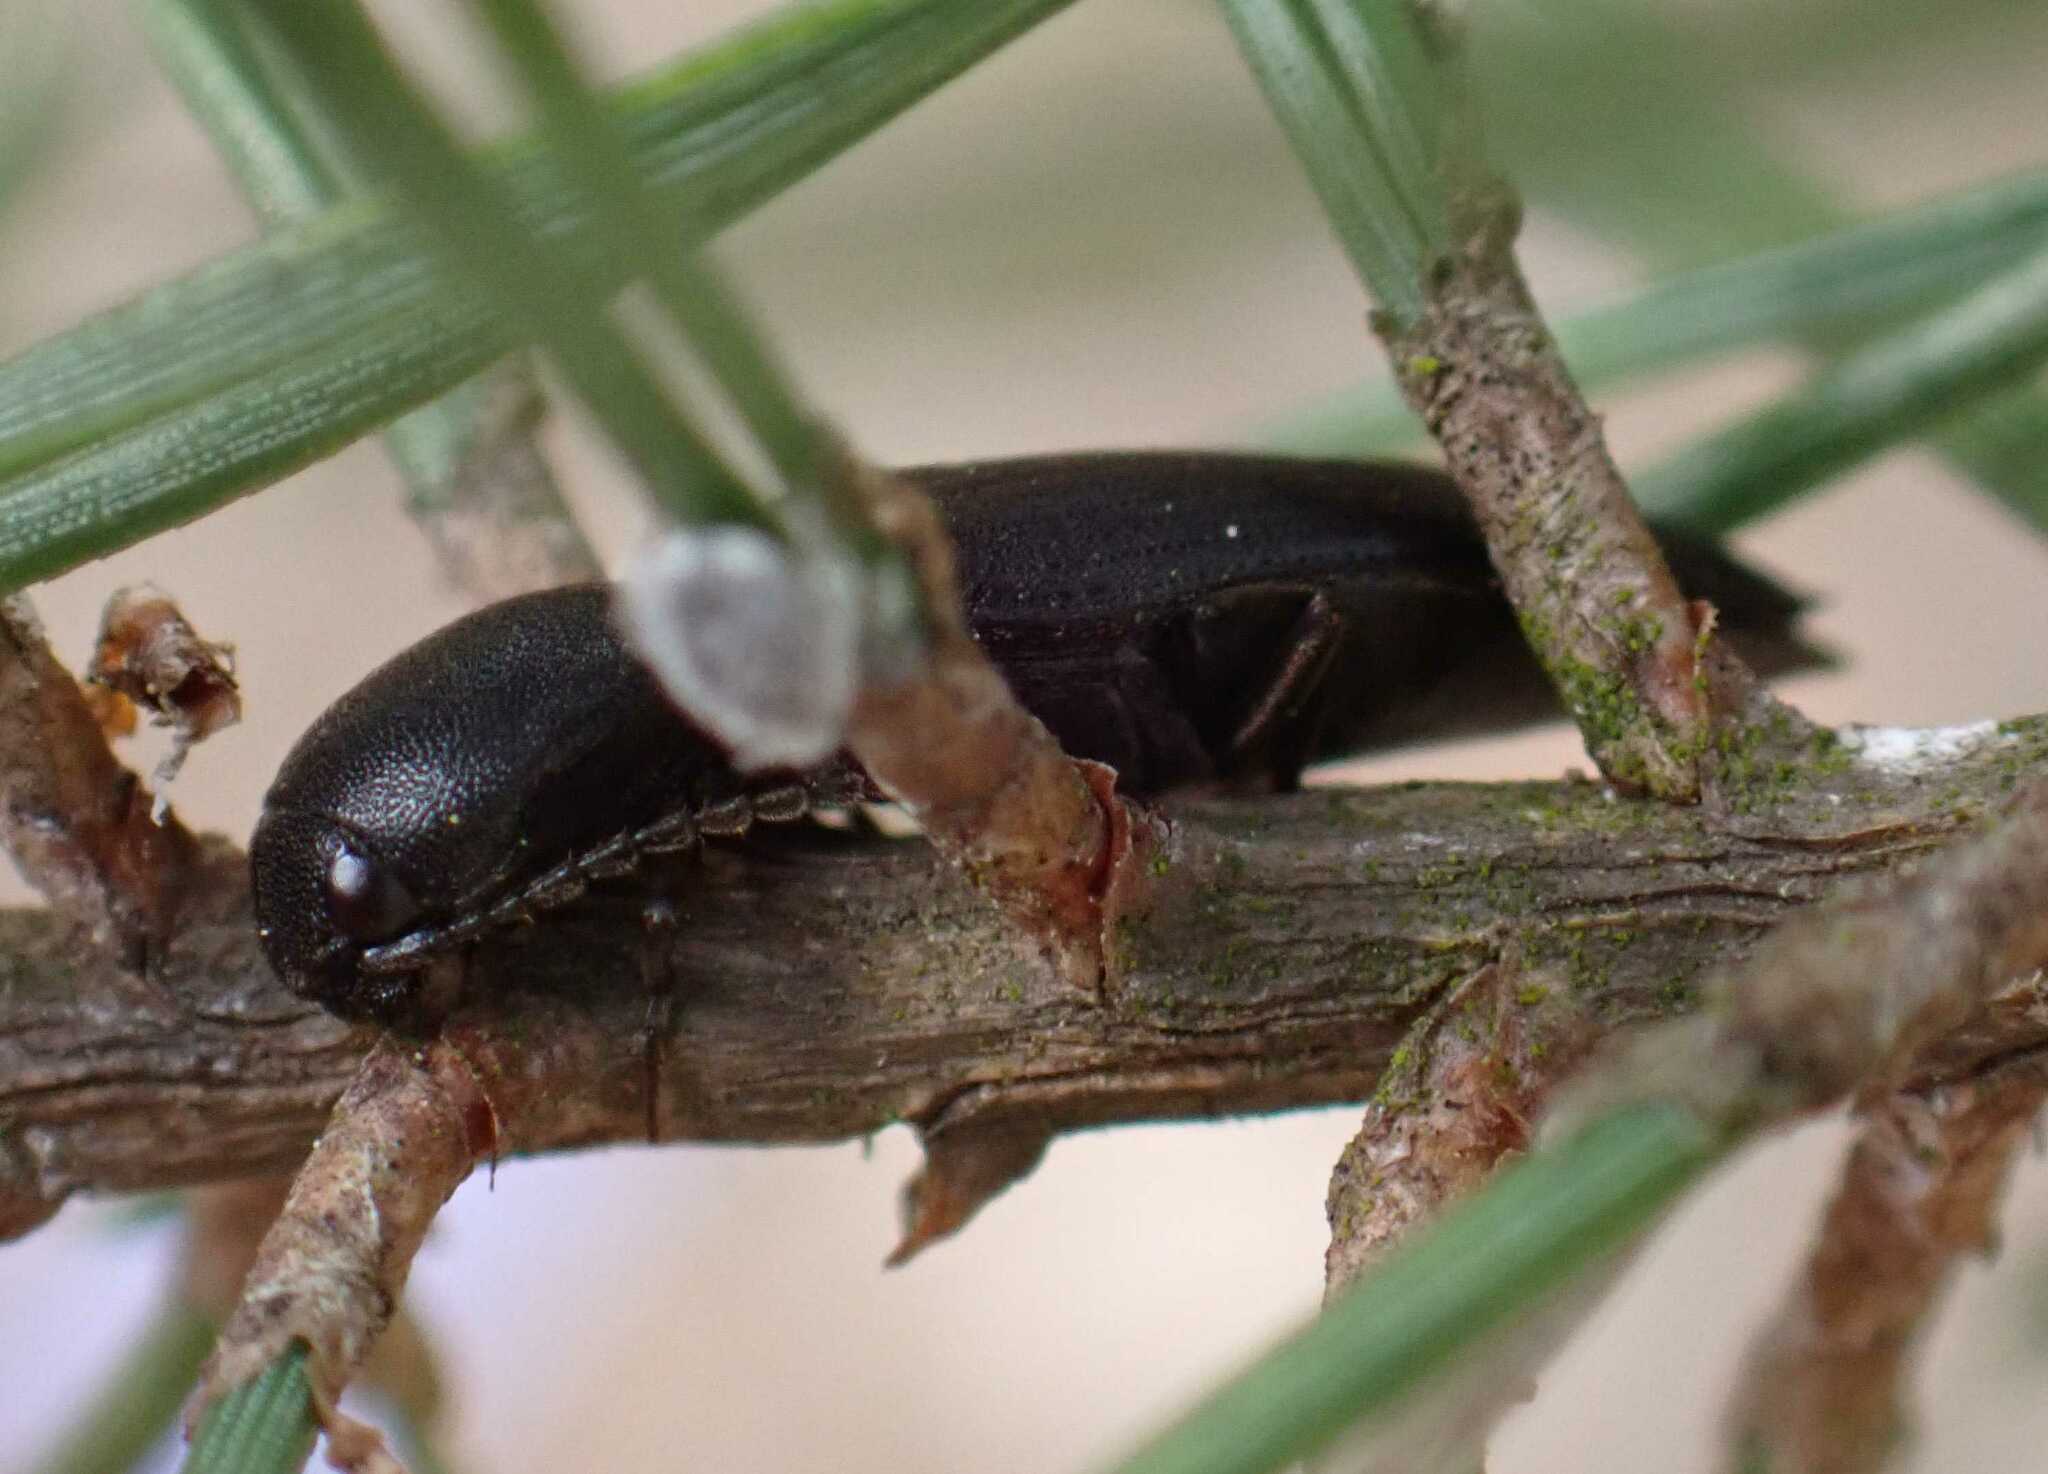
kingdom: Animalia
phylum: Arthropoda
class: Insecta
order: Coleoptera
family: Elateridae
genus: Ectinus
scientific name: Ectinus aterrimus
